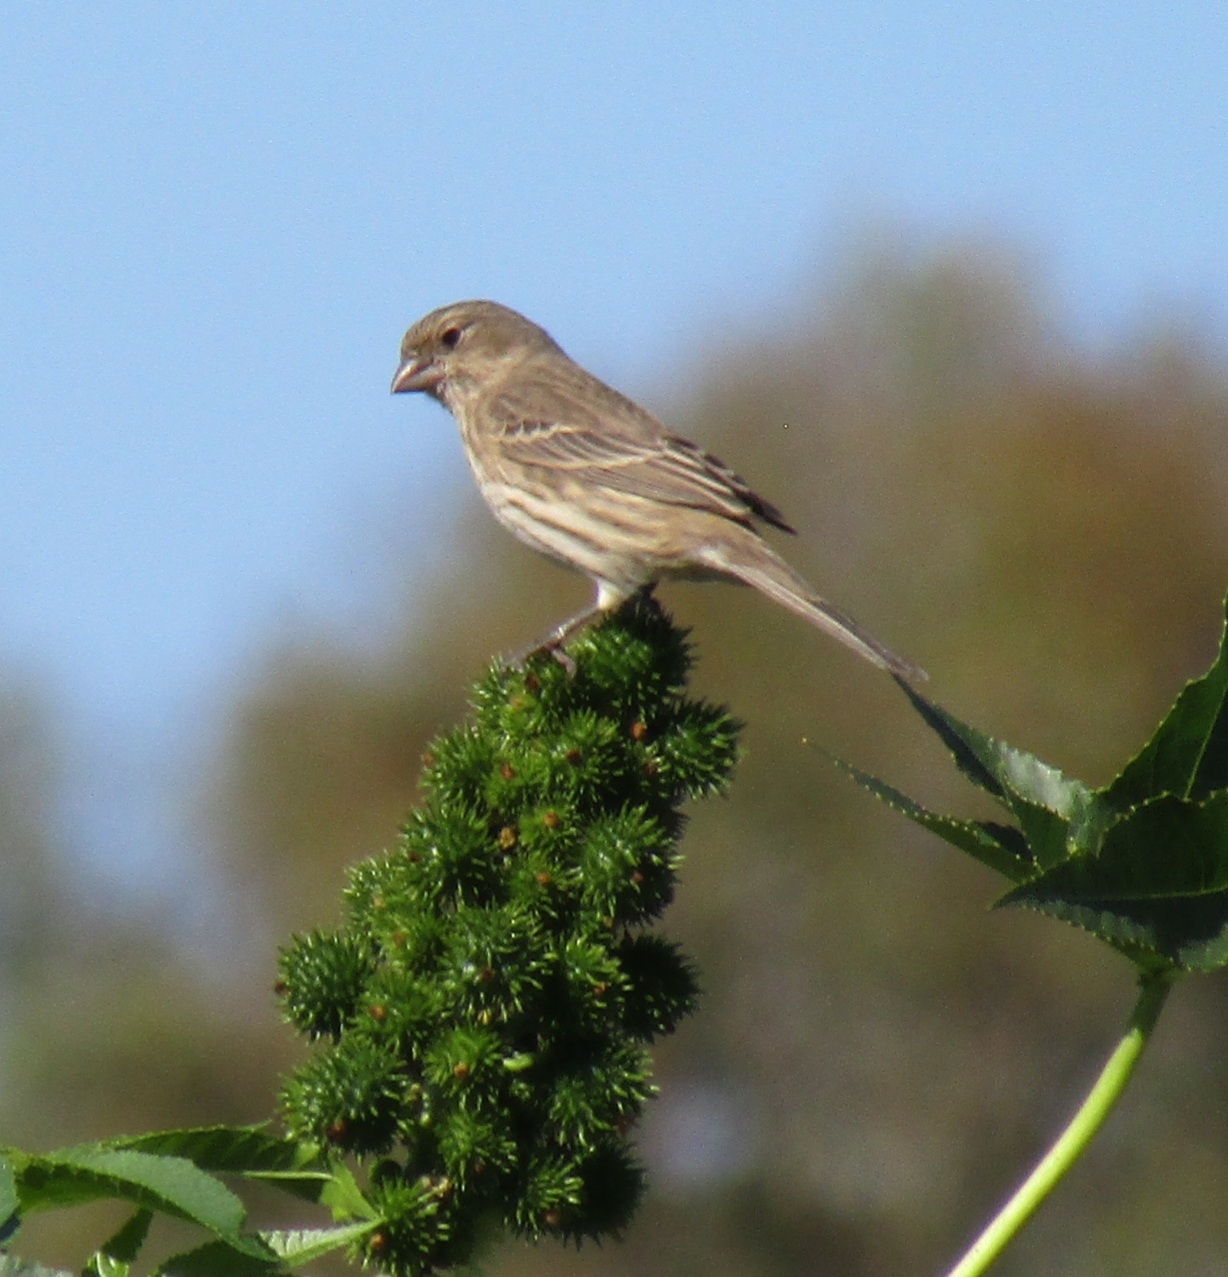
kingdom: Animalia
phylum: Chordata
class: Aves
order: Passeriformes
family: Fringillidae
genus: Haemorhous
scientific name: Haemorhous mexicanus
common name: House finch
